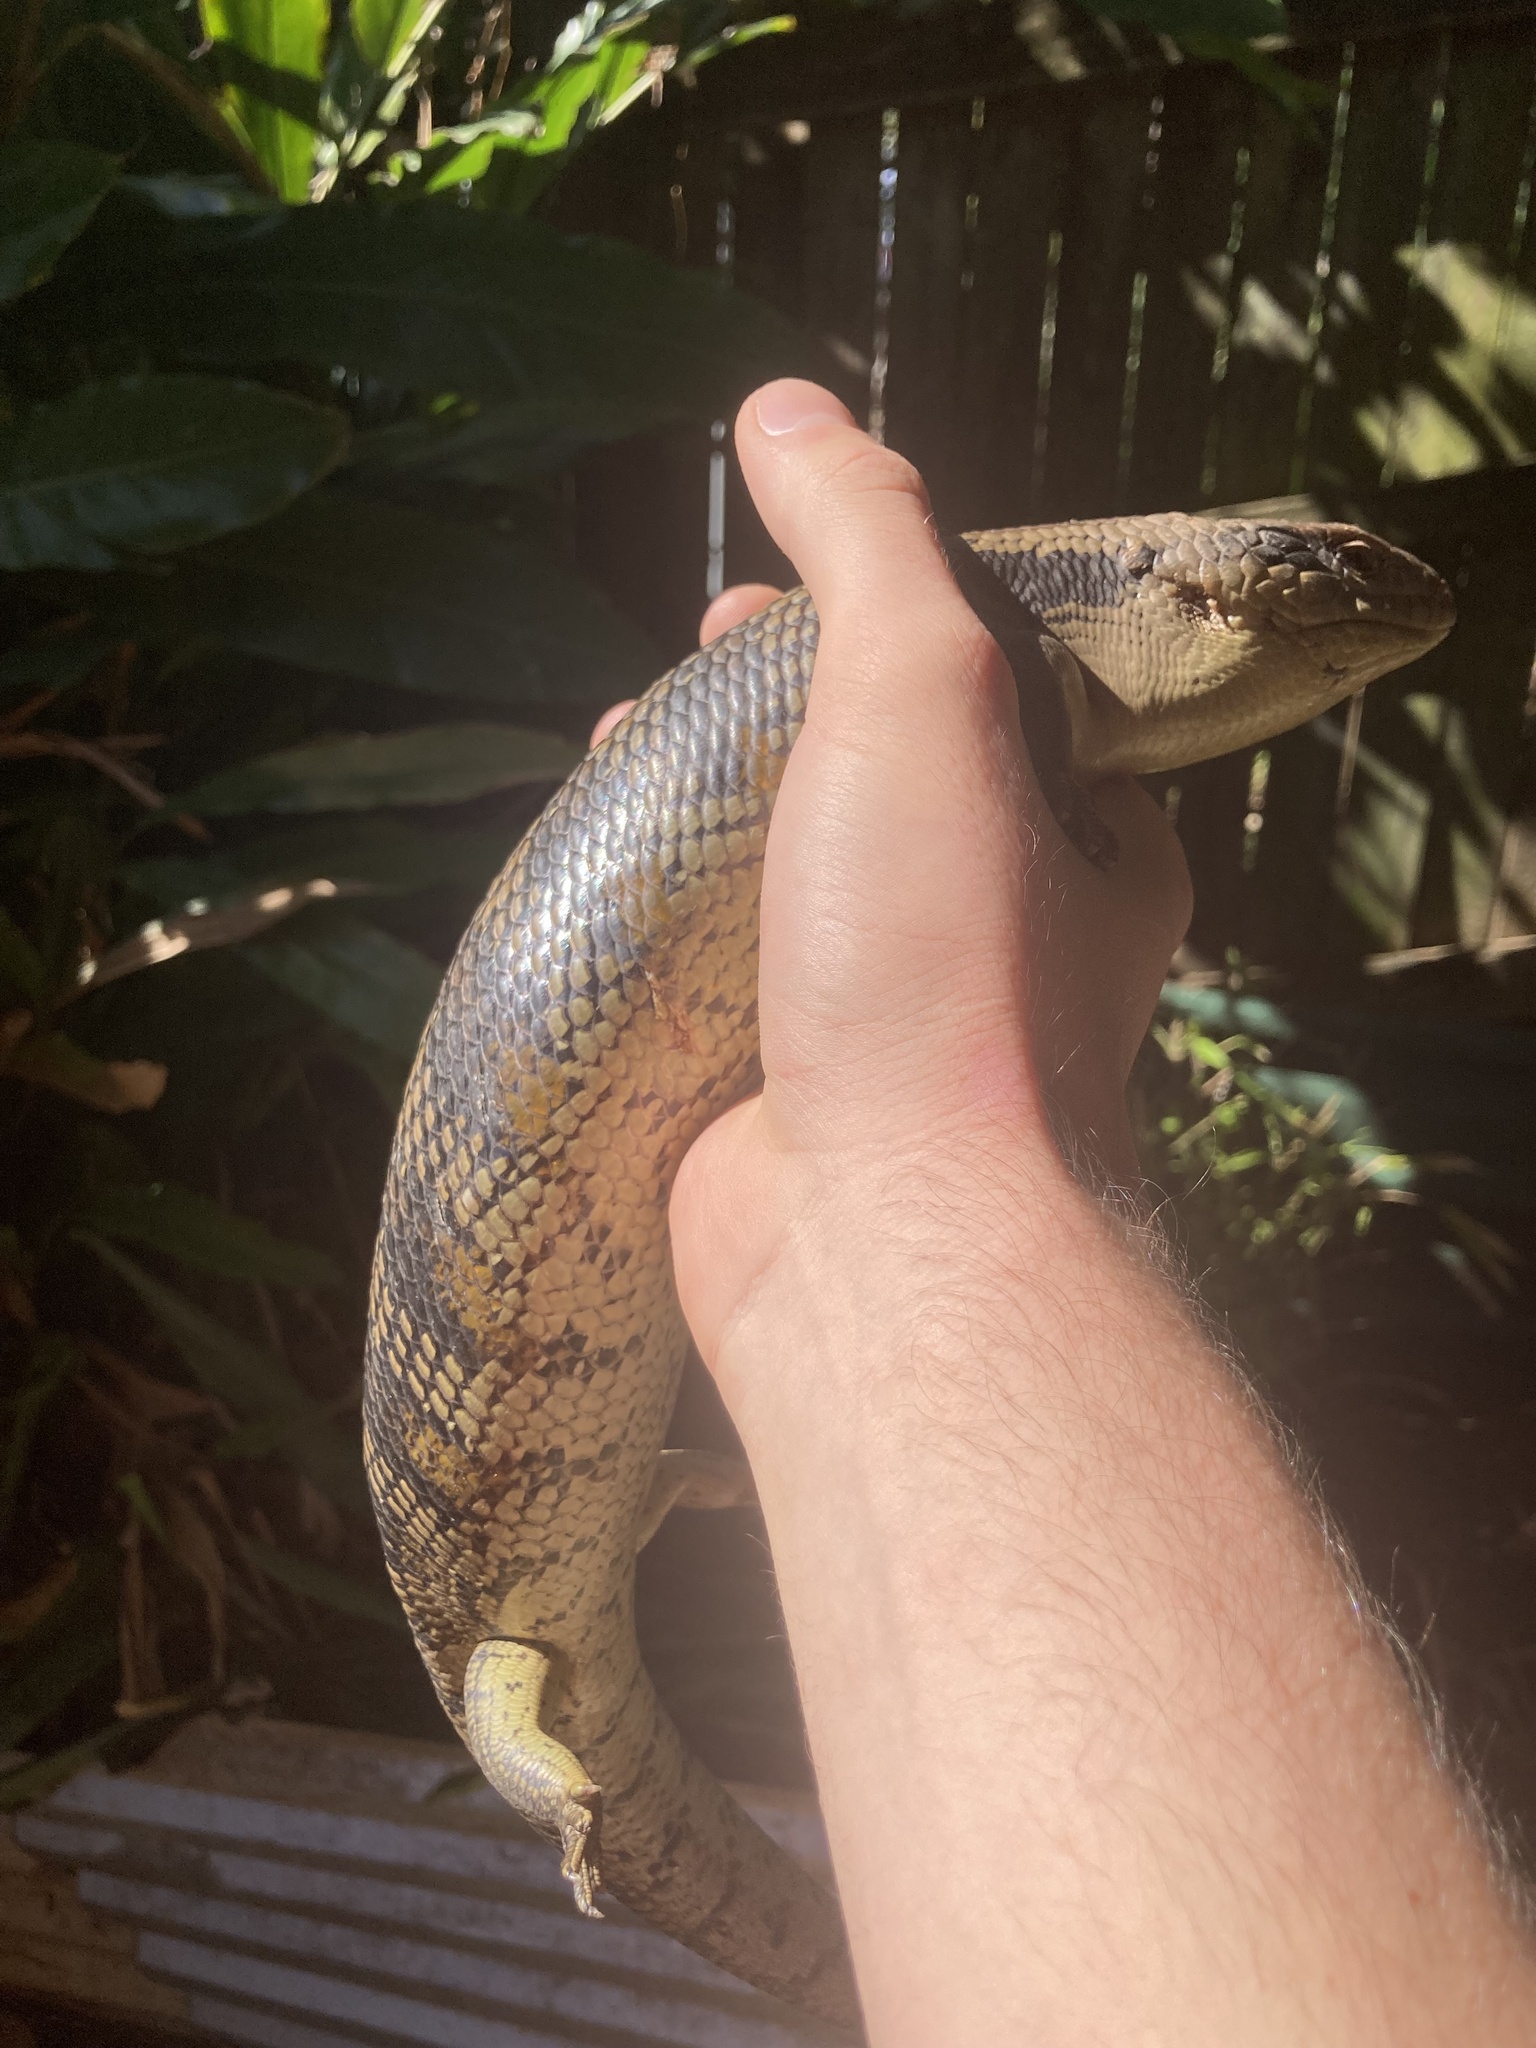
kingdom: Animalia
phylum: Chordata
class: Squamata
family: Scincidae
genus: Tiliqua
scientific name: Tiliqua scincoides
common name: Common bluetongue
